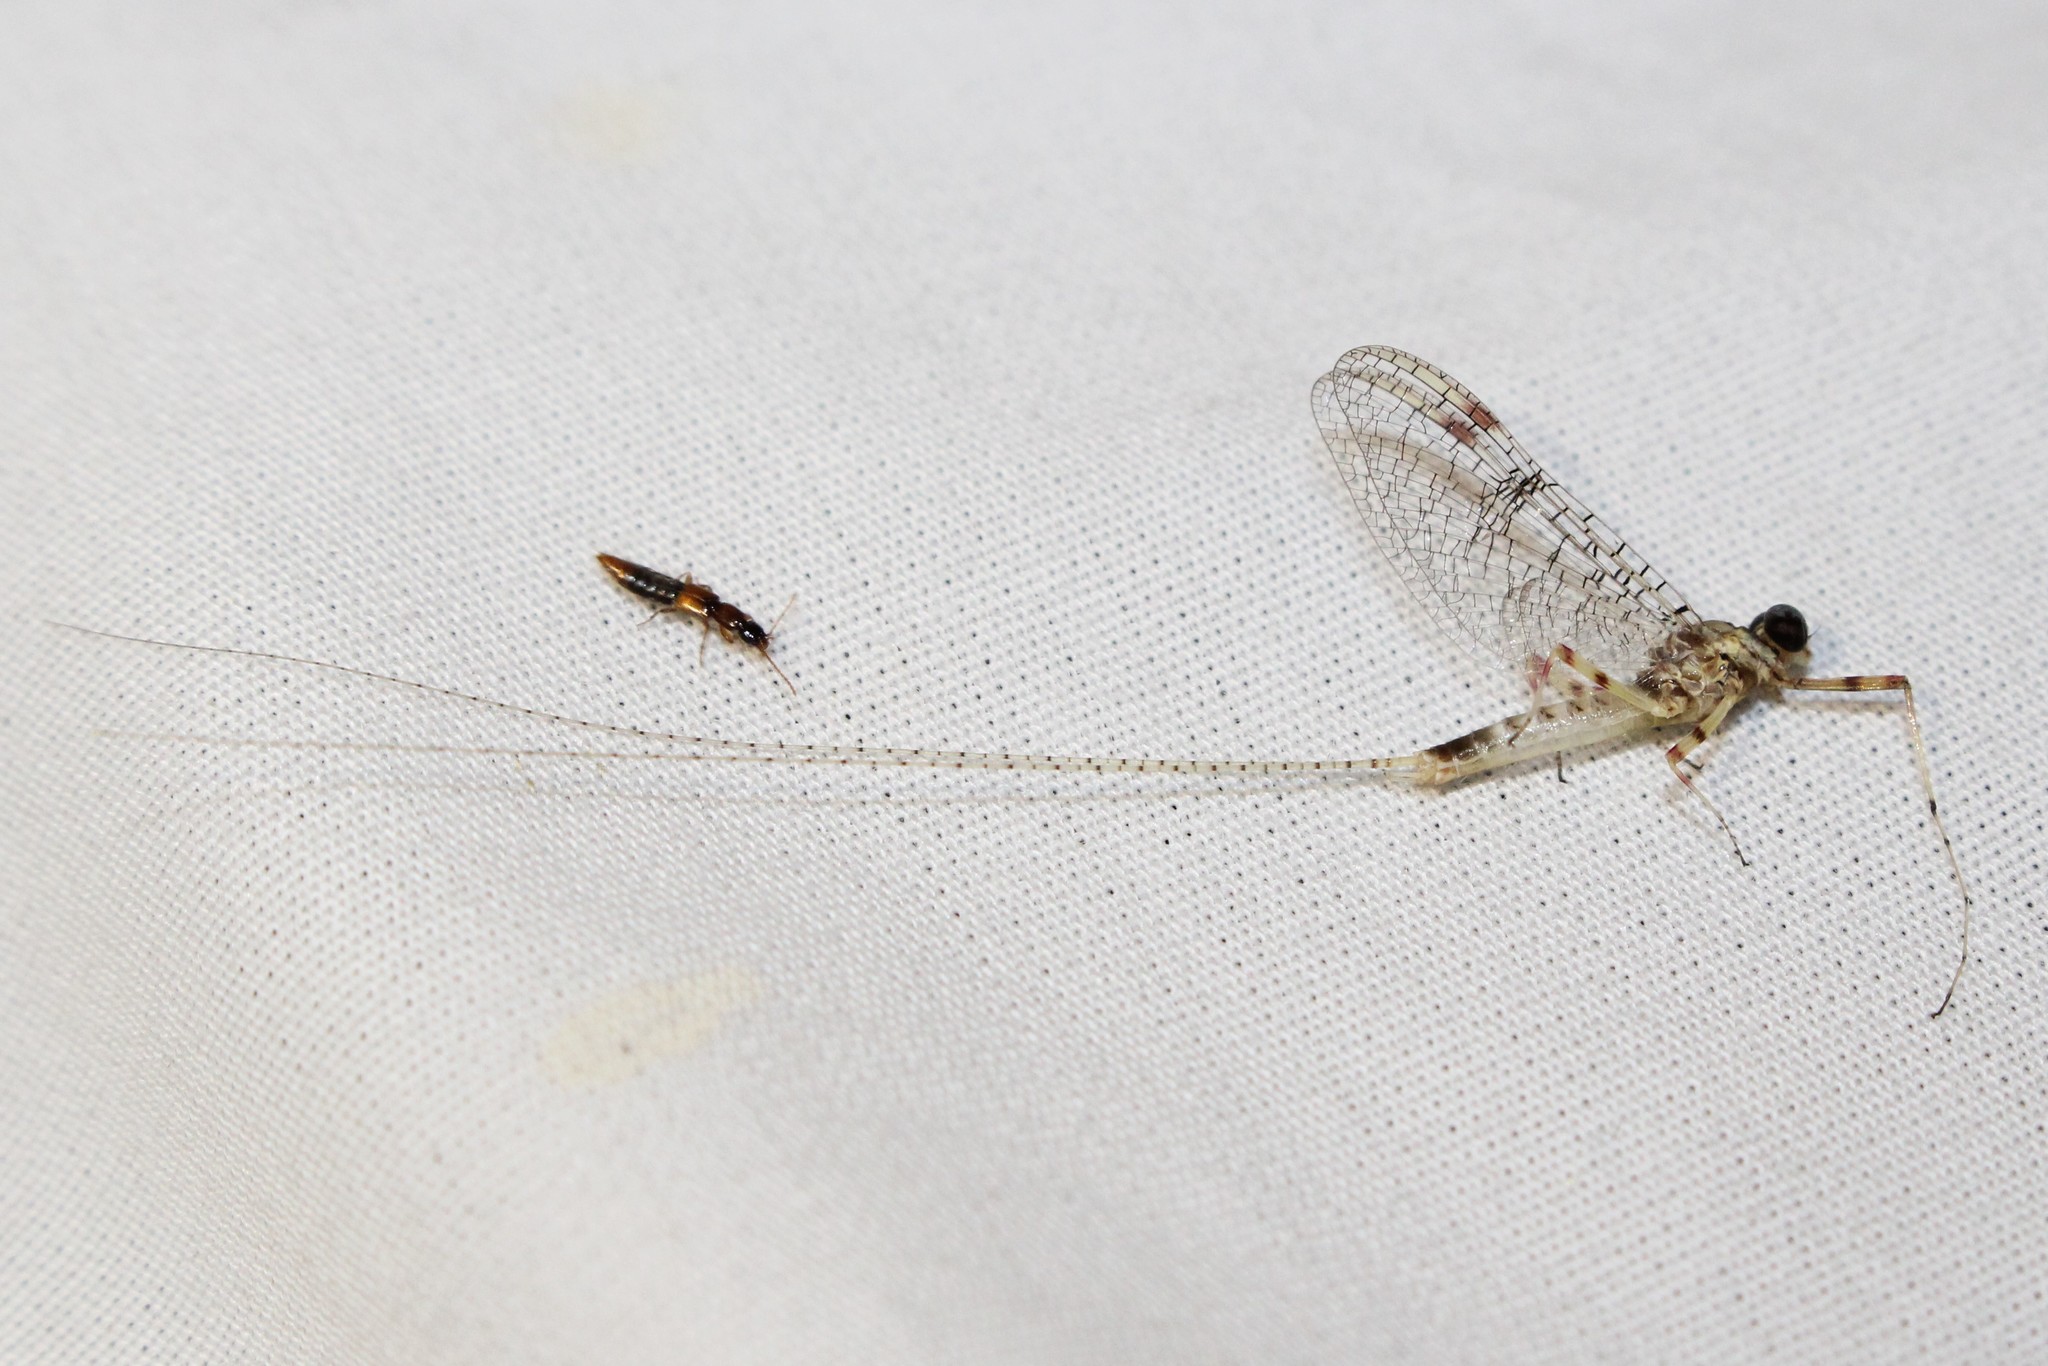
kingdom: Animalia
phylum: Arthropoda
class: Insecta
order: Ephemeroptera
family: Heptageniidae
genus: Stenonema
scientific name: Stenonema femoratum
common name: Dark cahill
